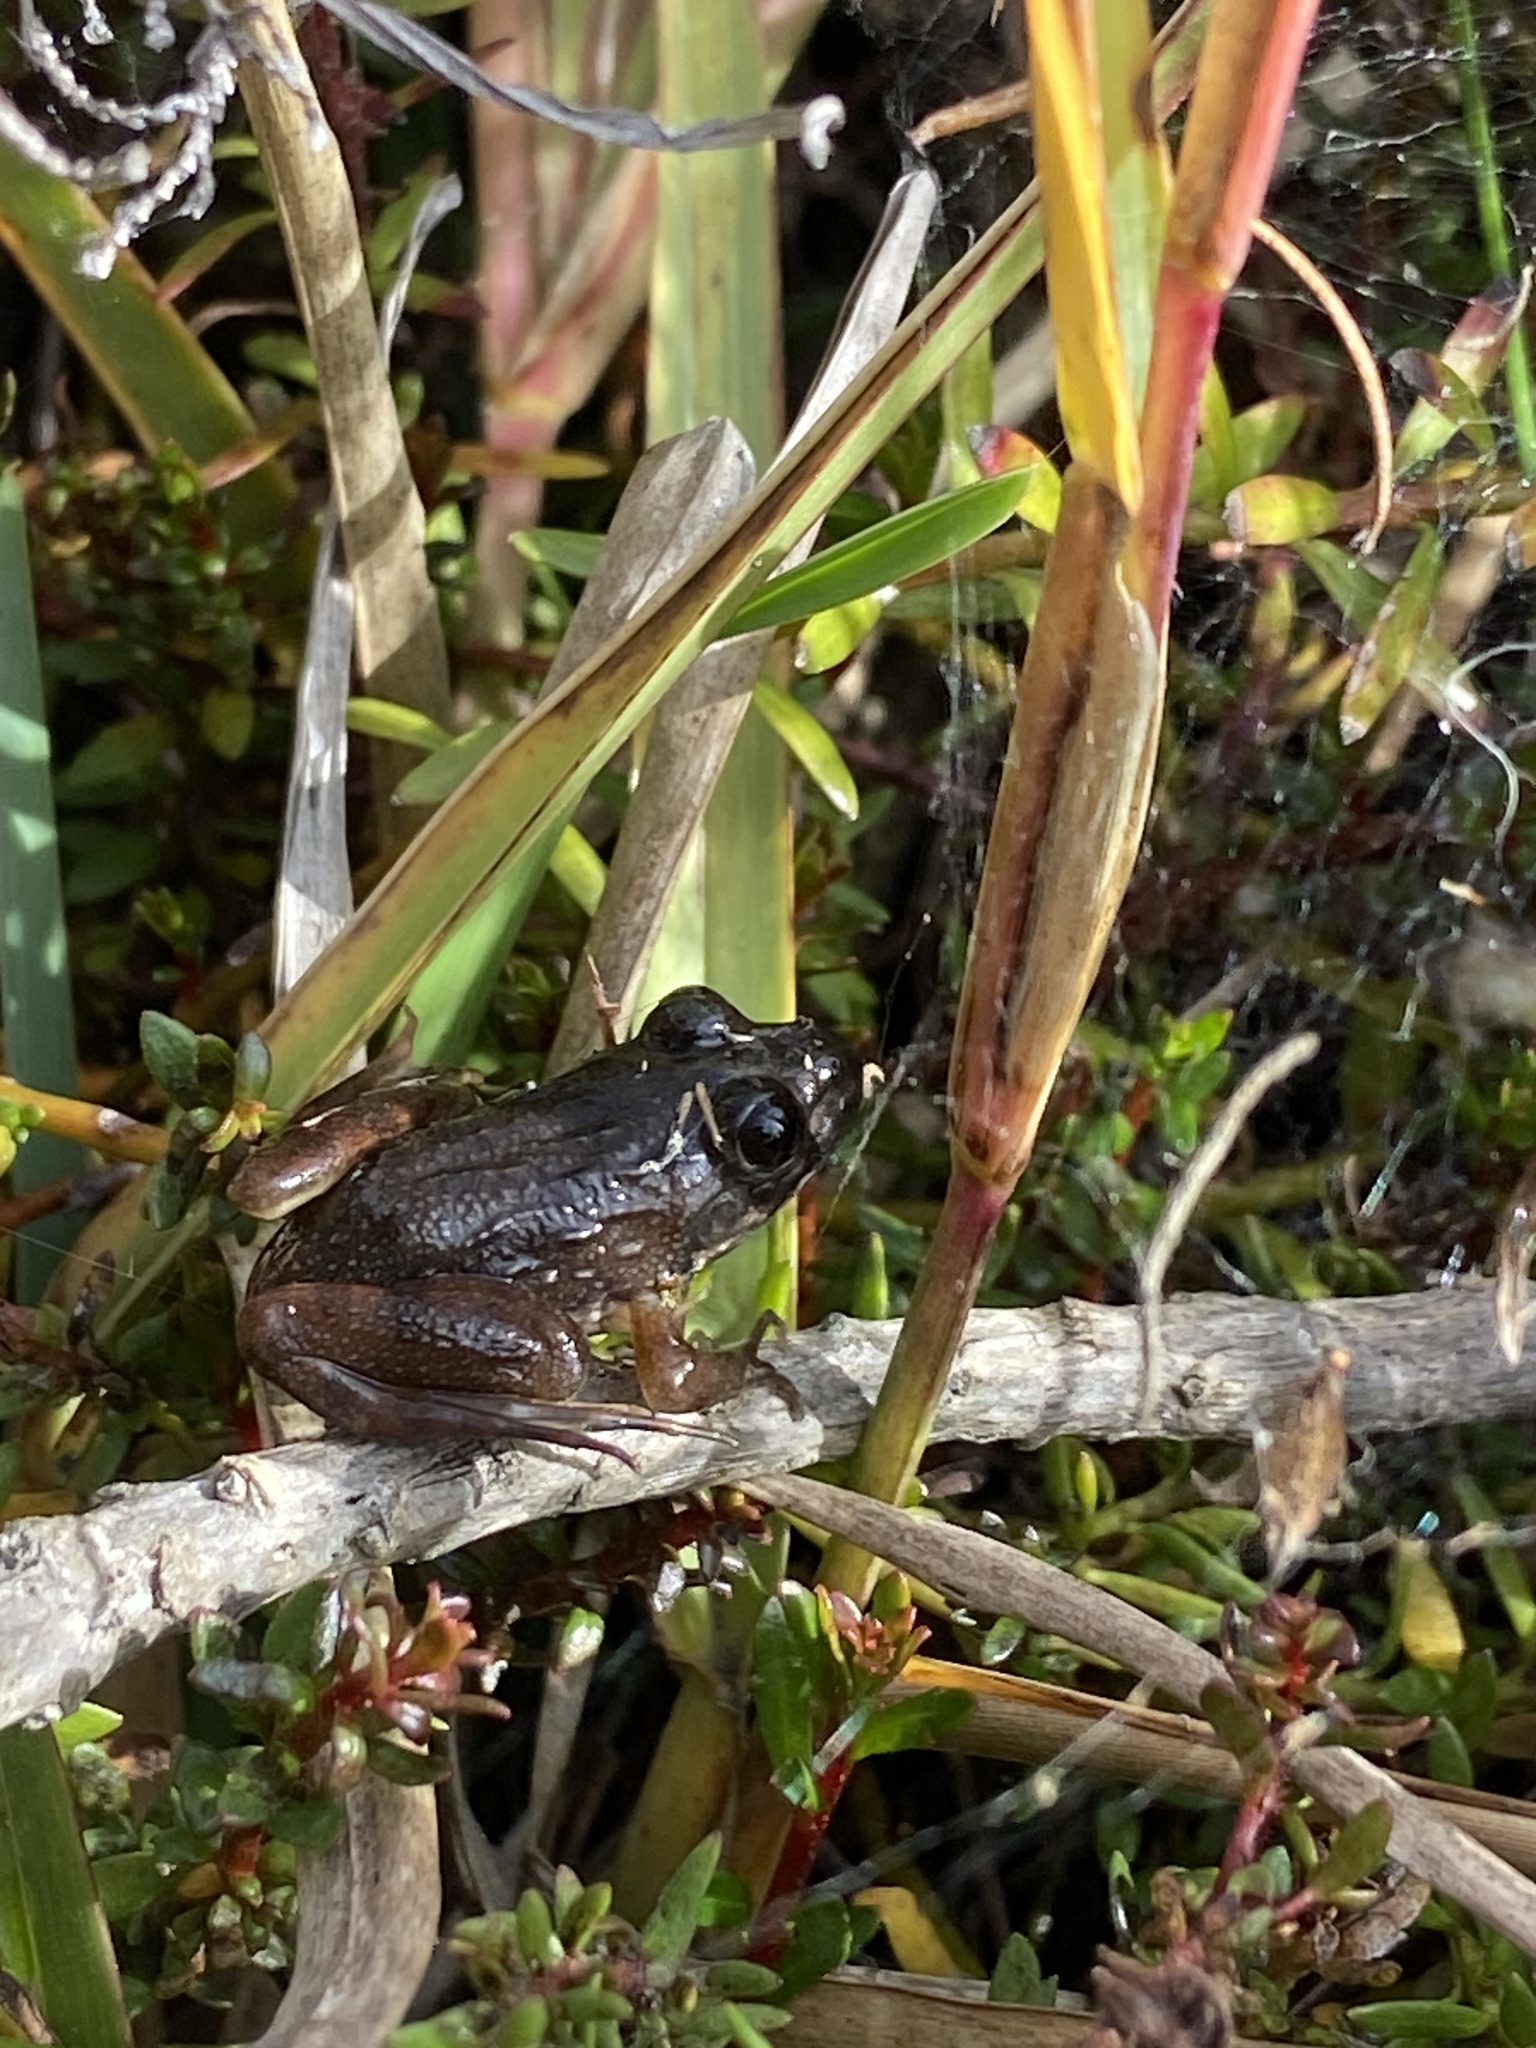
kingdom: Animalia
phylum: Chordata
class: Amphibia
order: Anura
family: Pyxicephalidae
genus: Amietia
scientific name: Amietia fuscigula
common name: Cape rana
